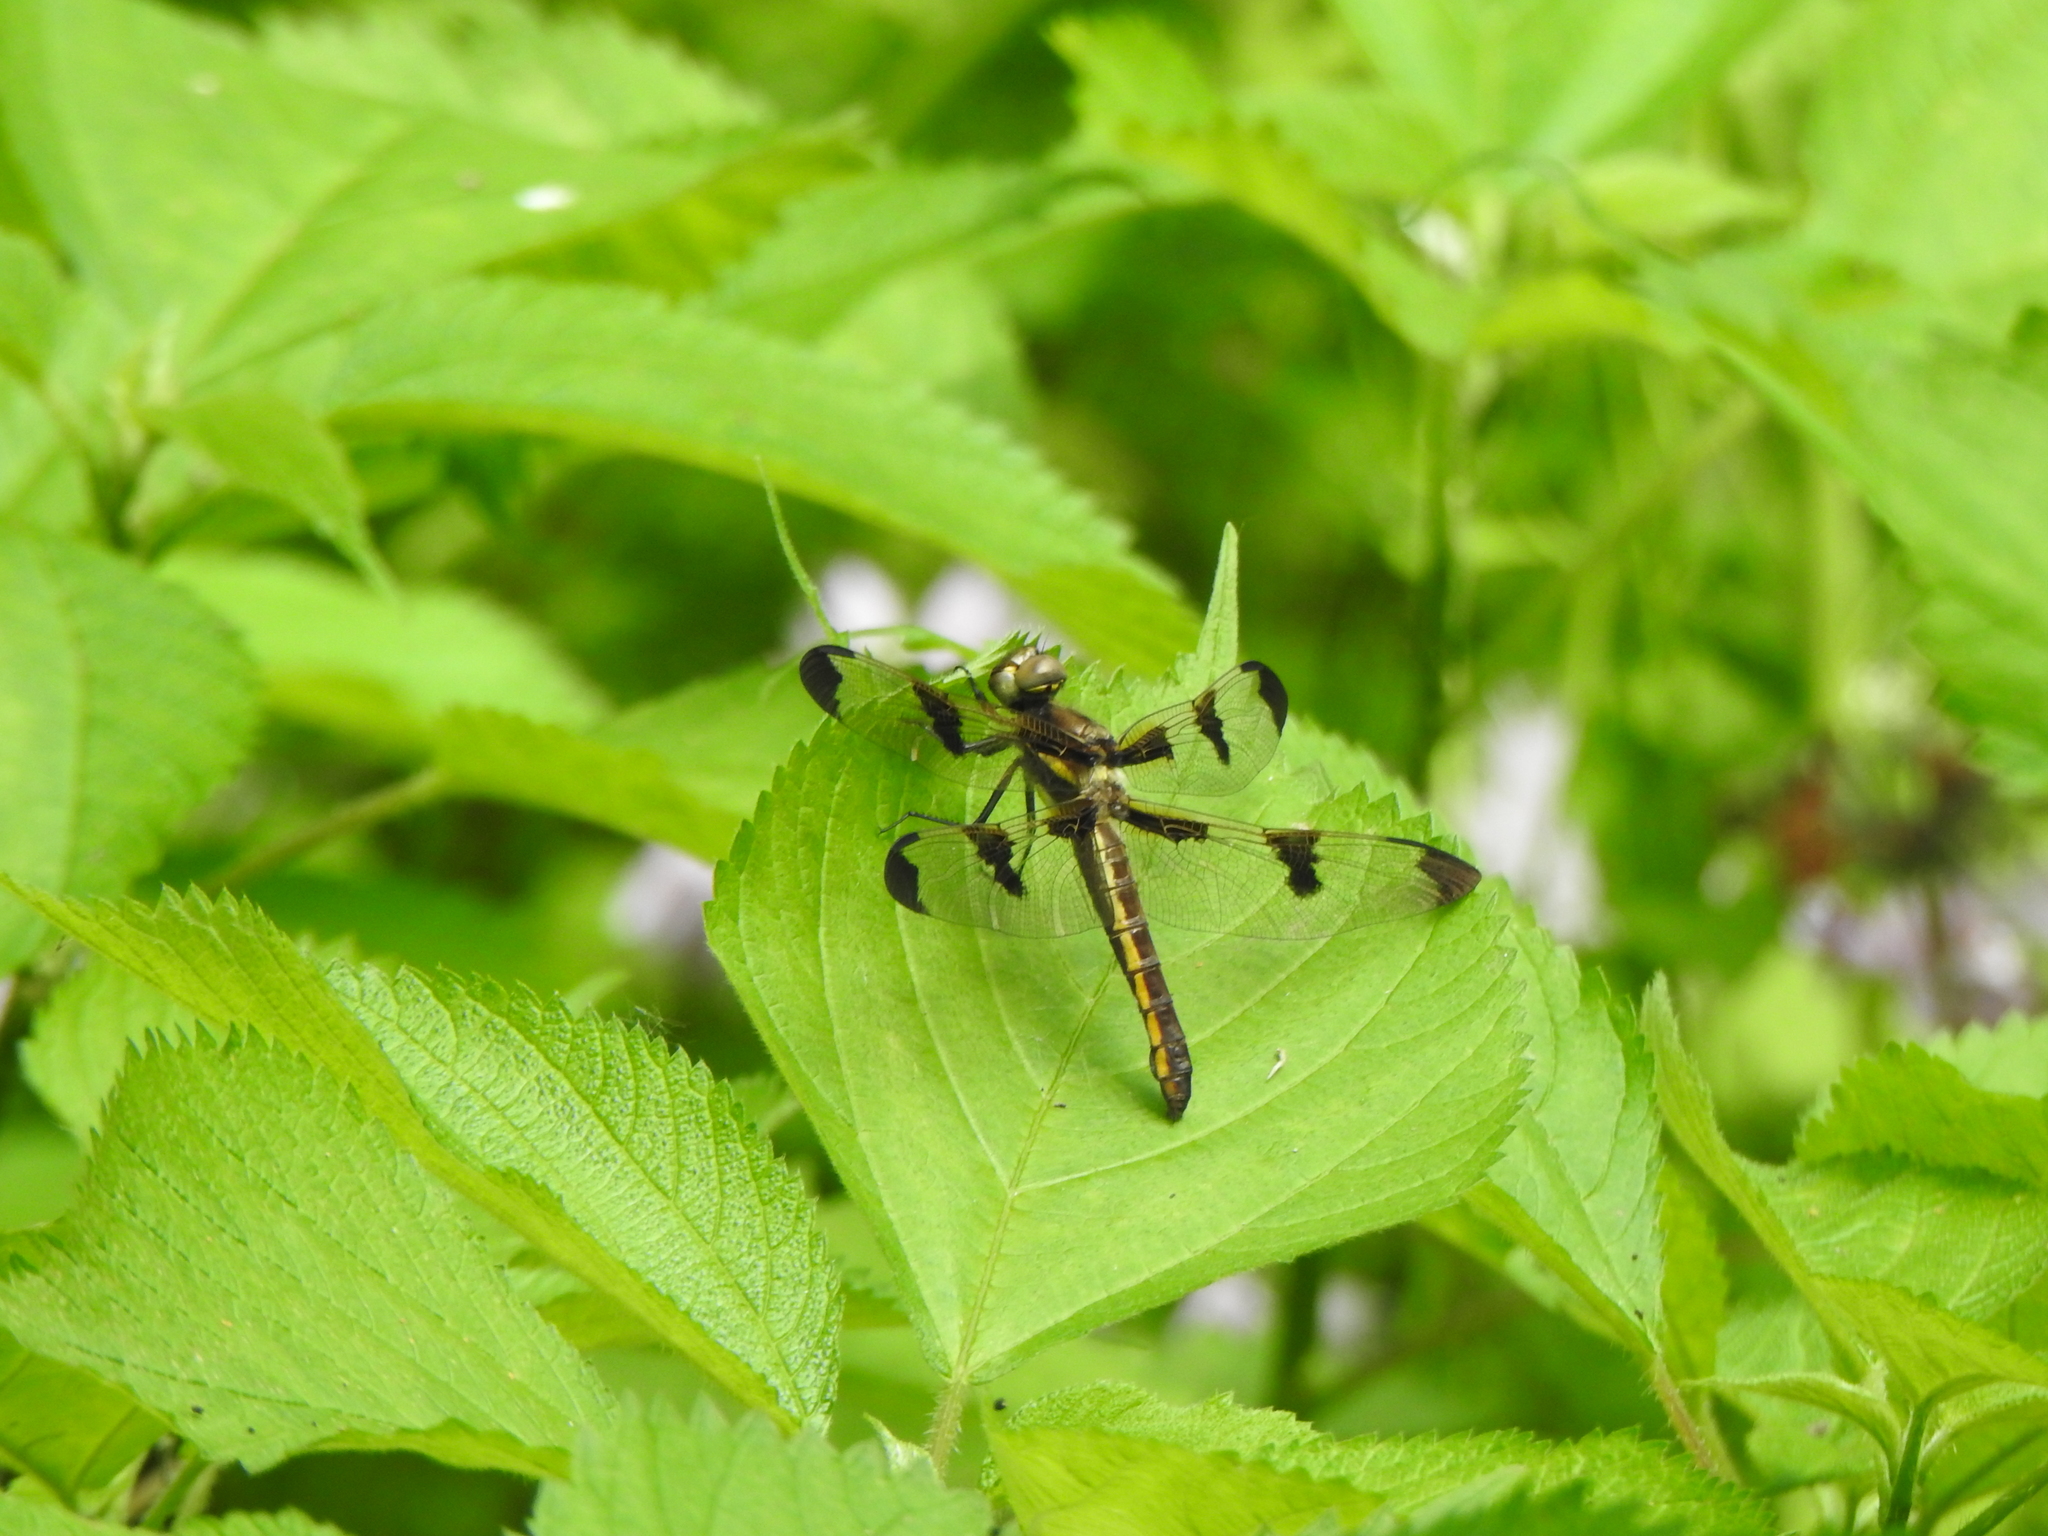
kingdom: Animalia
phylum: Arthropoda
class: Insecta
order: Odonata
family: Libellulidae
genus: Libellula
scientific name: Libellula pulchella
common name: Twelve-spotted skimmer
